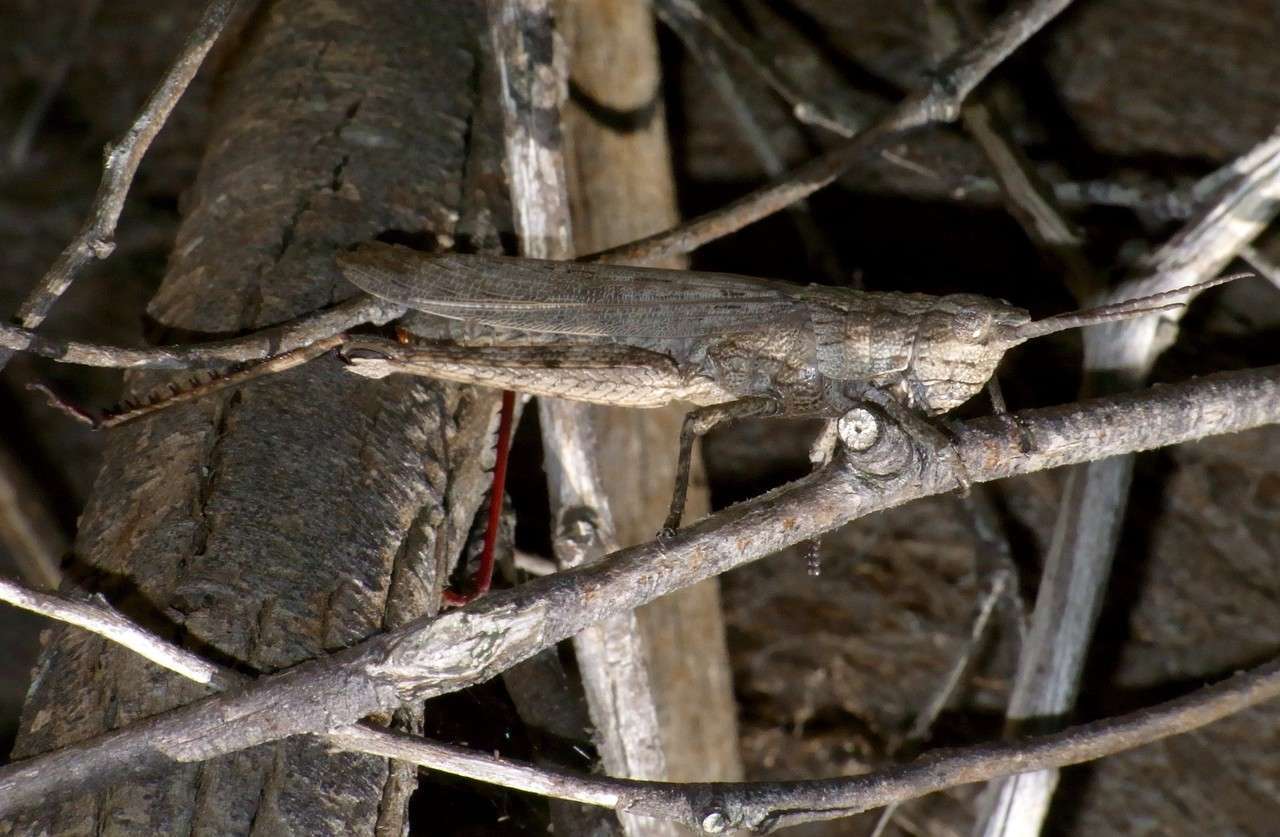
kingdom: Animalia
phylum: Arthropoda
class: Insecta
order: Orthoptera
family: Acrididae
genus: Coryphistes
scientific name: Coryphistes ruricola
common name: Bark-mimicking grasshopper
